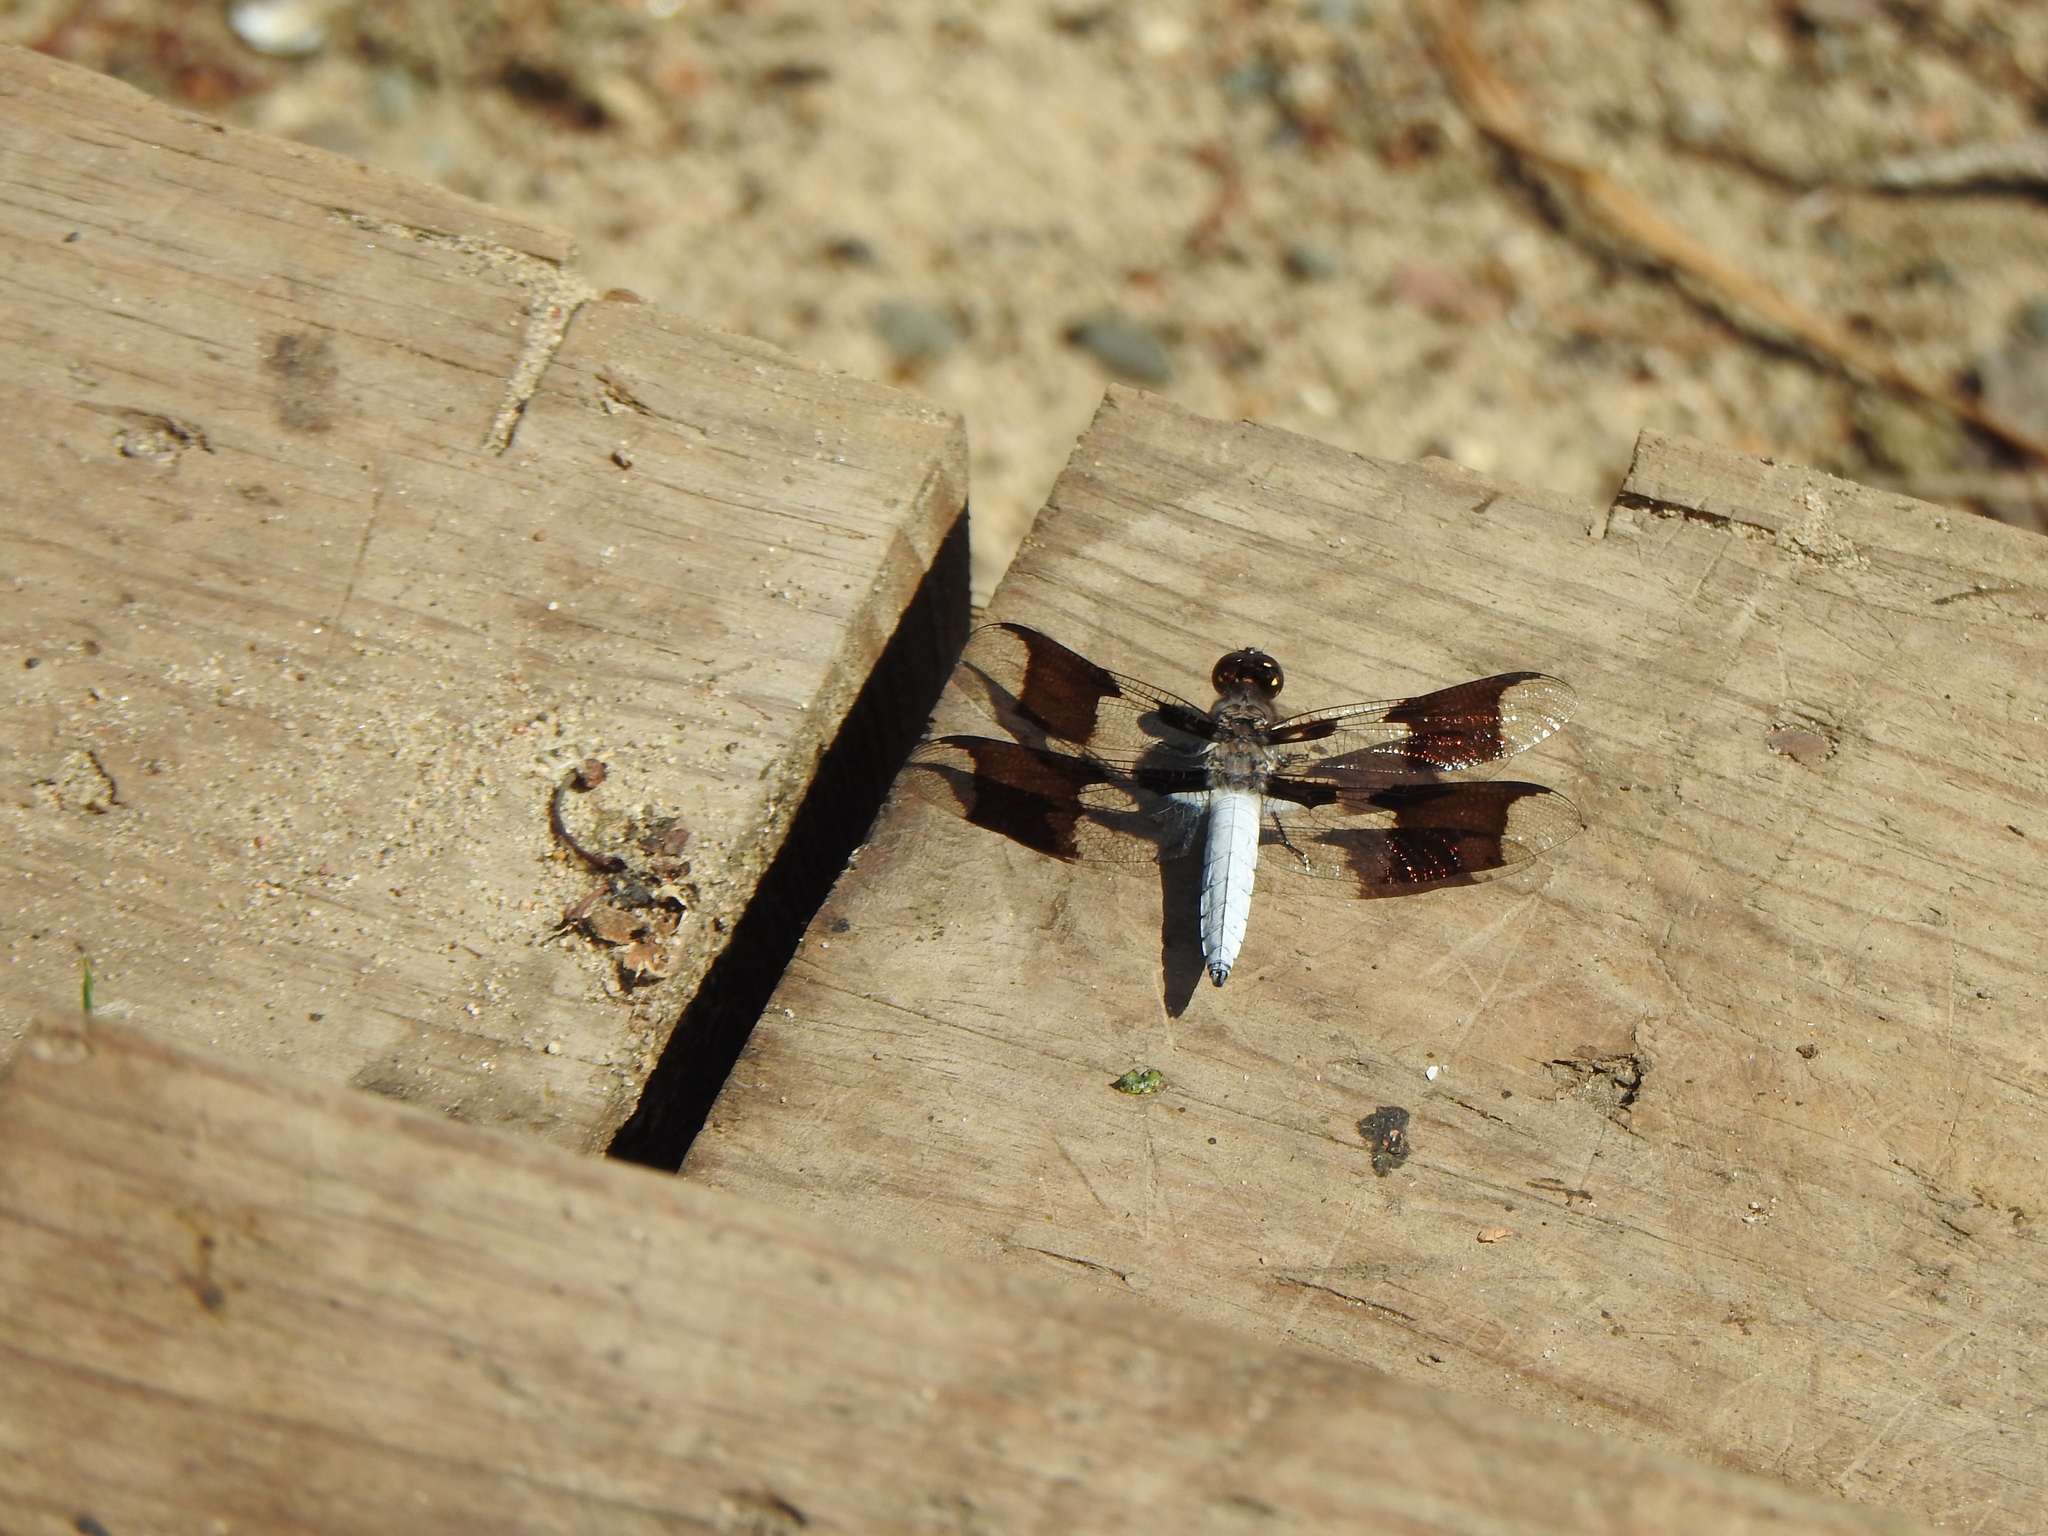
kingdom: Animalia
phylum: Arthropoda
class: Insecta
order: Odonata
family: Libellulidae
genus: Plathemis
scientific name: Plathemis lydia
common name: Common whitetail
